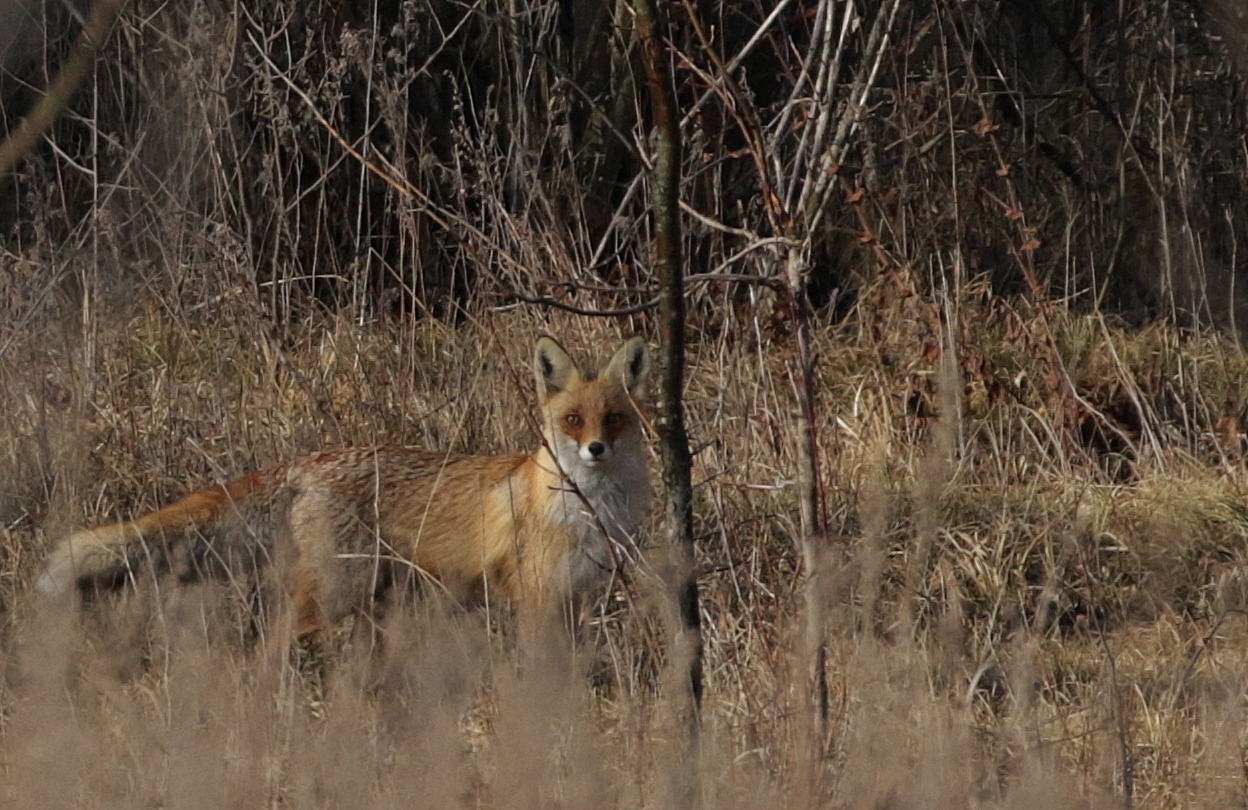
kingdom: Animalia
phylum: Chordata
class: Mammalia
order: Carnivora
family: Canidae
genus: Vulpes
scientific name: Vulpes vulpes
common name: Red fox
